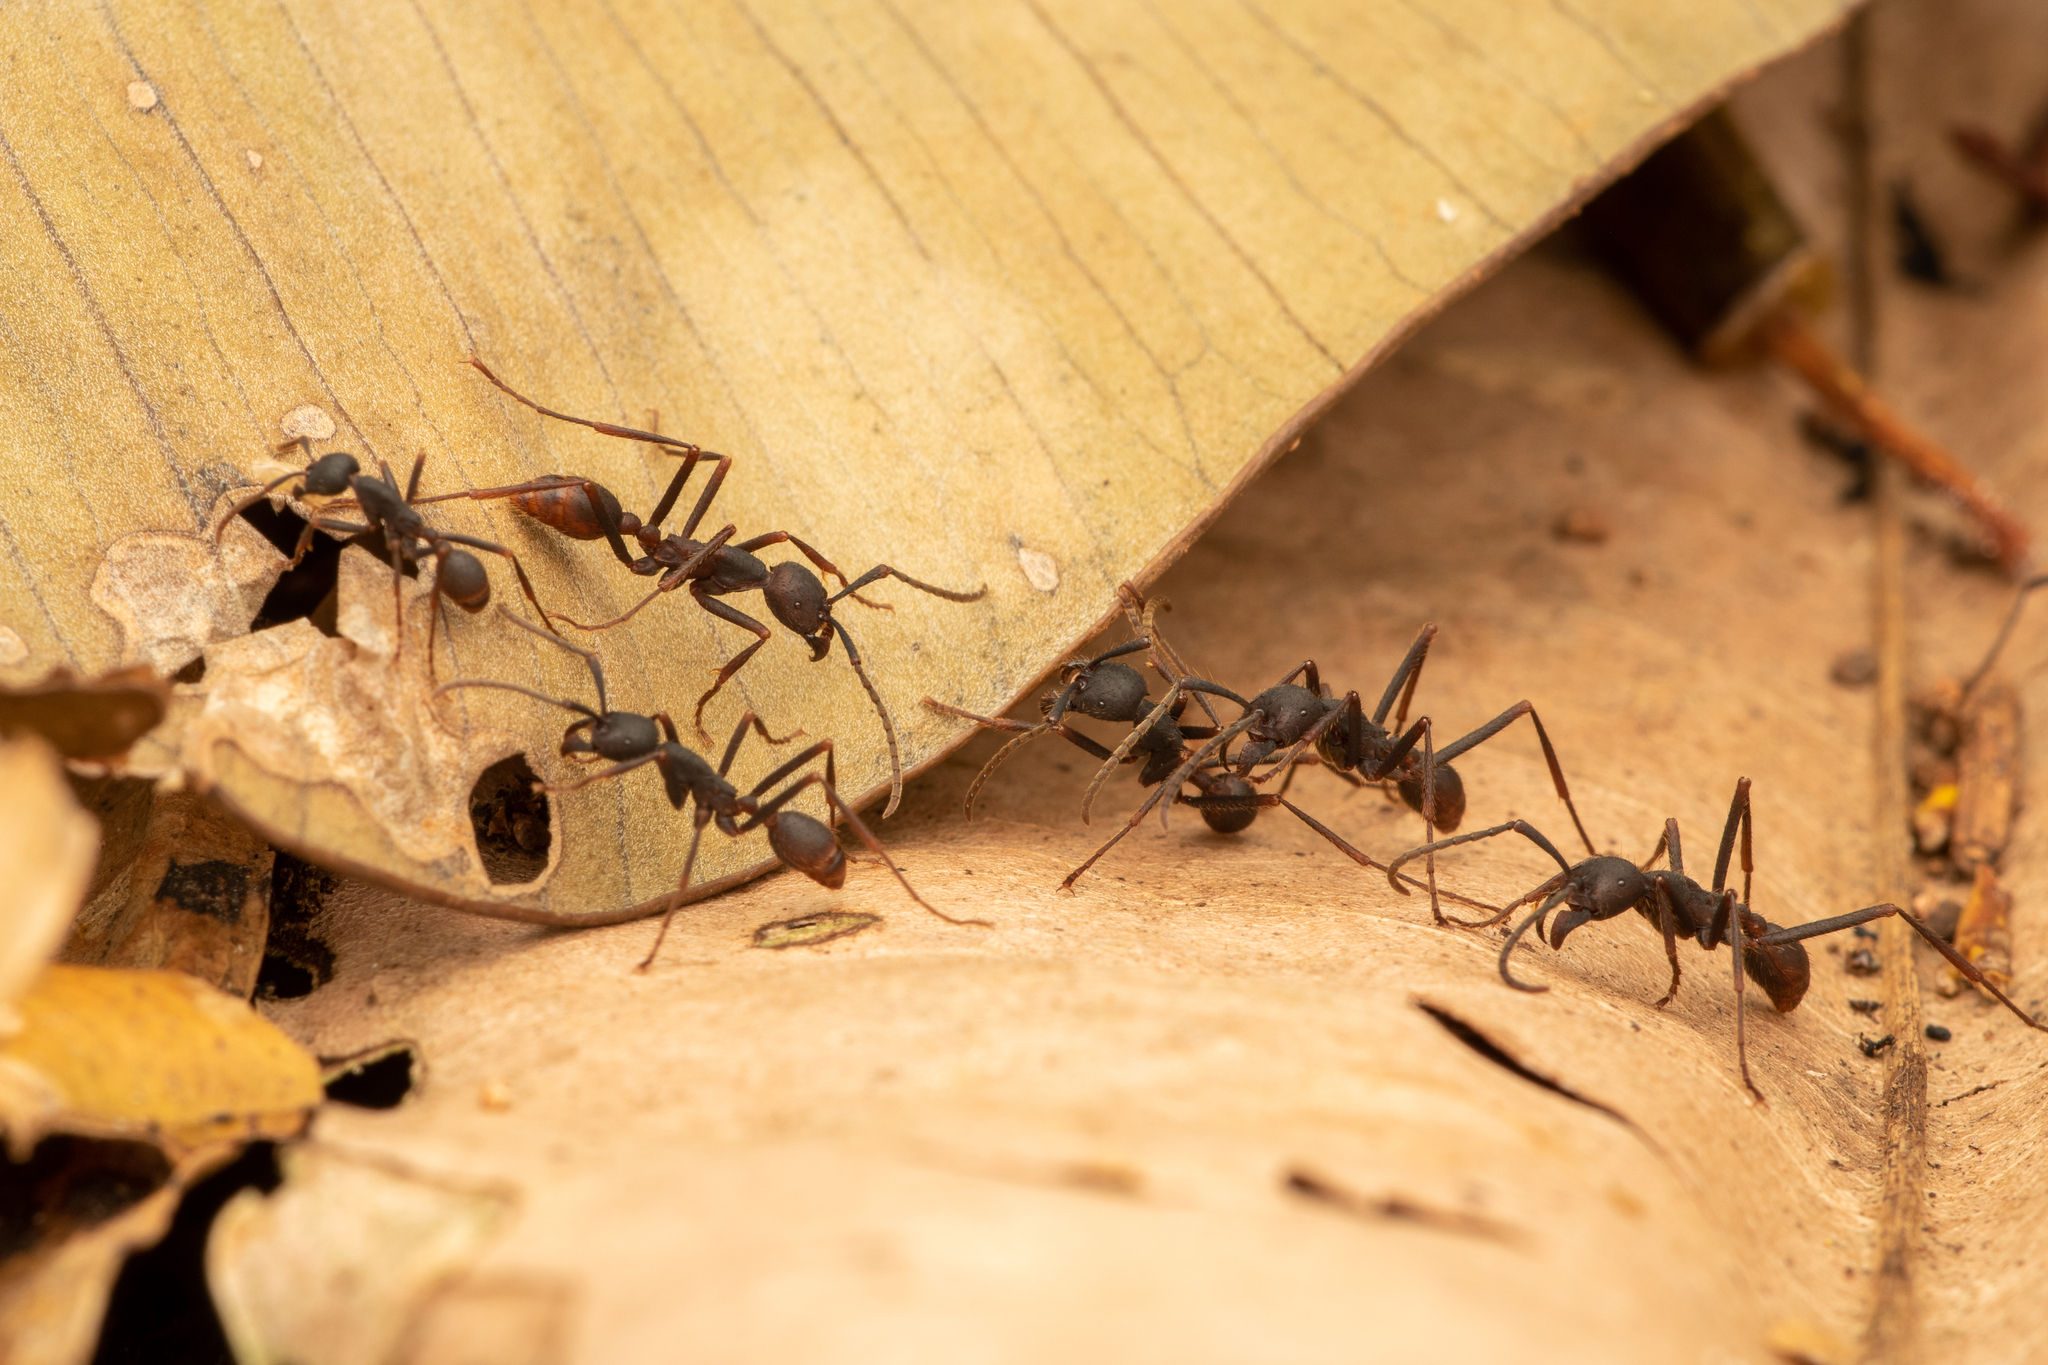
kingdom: Animalia
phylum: Arthropoda
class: Insecta
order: Hymenoptera
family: Formicidae
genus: Eciton
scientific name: Eciton burchellii
